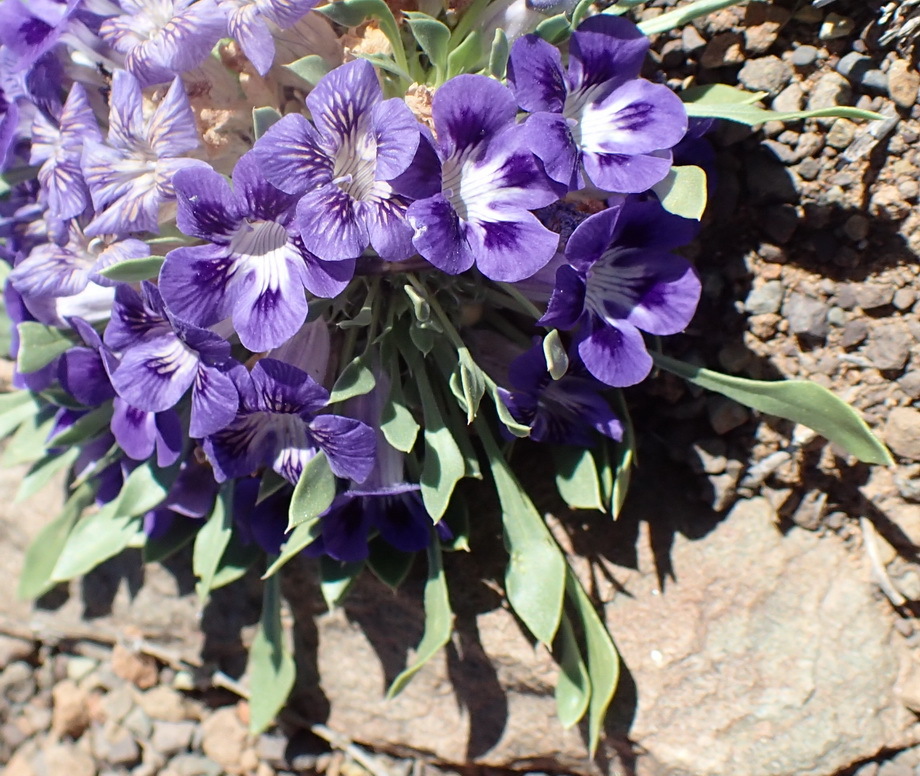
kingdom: Plantae
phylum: Tracheophyta
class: Magnoliopsida
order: Lamiales
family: Scrophulariaceae
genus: Aptosimum
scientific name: Aptosimum indivisum
